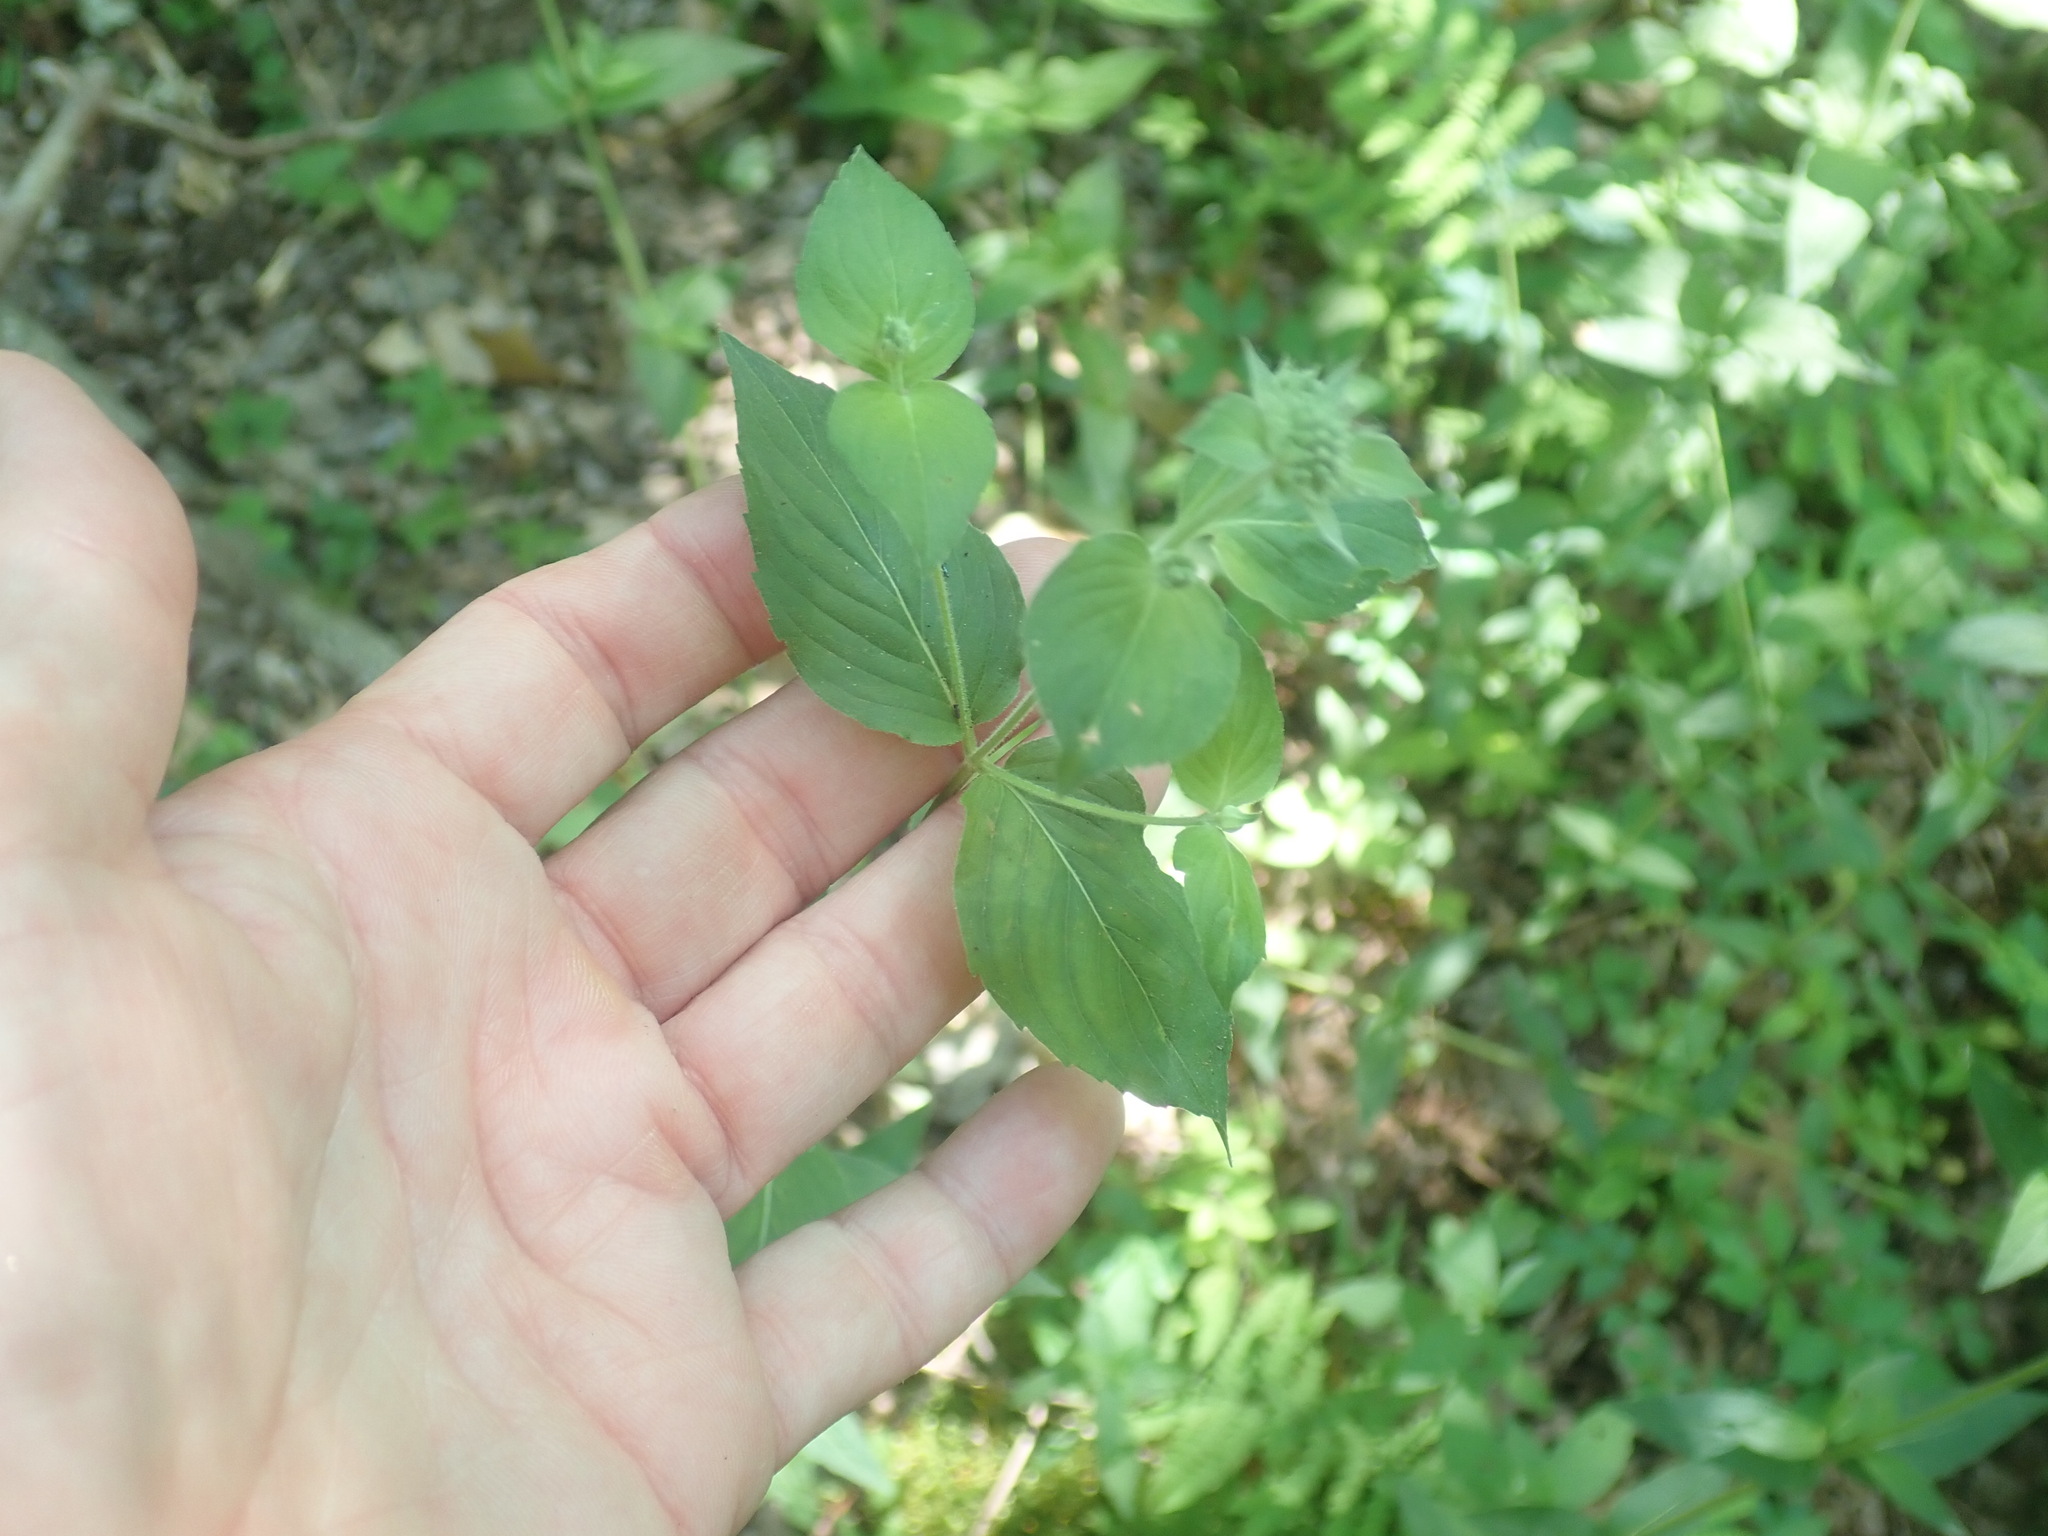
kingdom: Plantae
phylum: Tracheophyta
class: Magnoliopsida
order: Lamiales
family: Lamiaceae
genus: Pycnanthemum
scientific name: Pycnanthemum muticum
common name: Blunt mountain-mint
